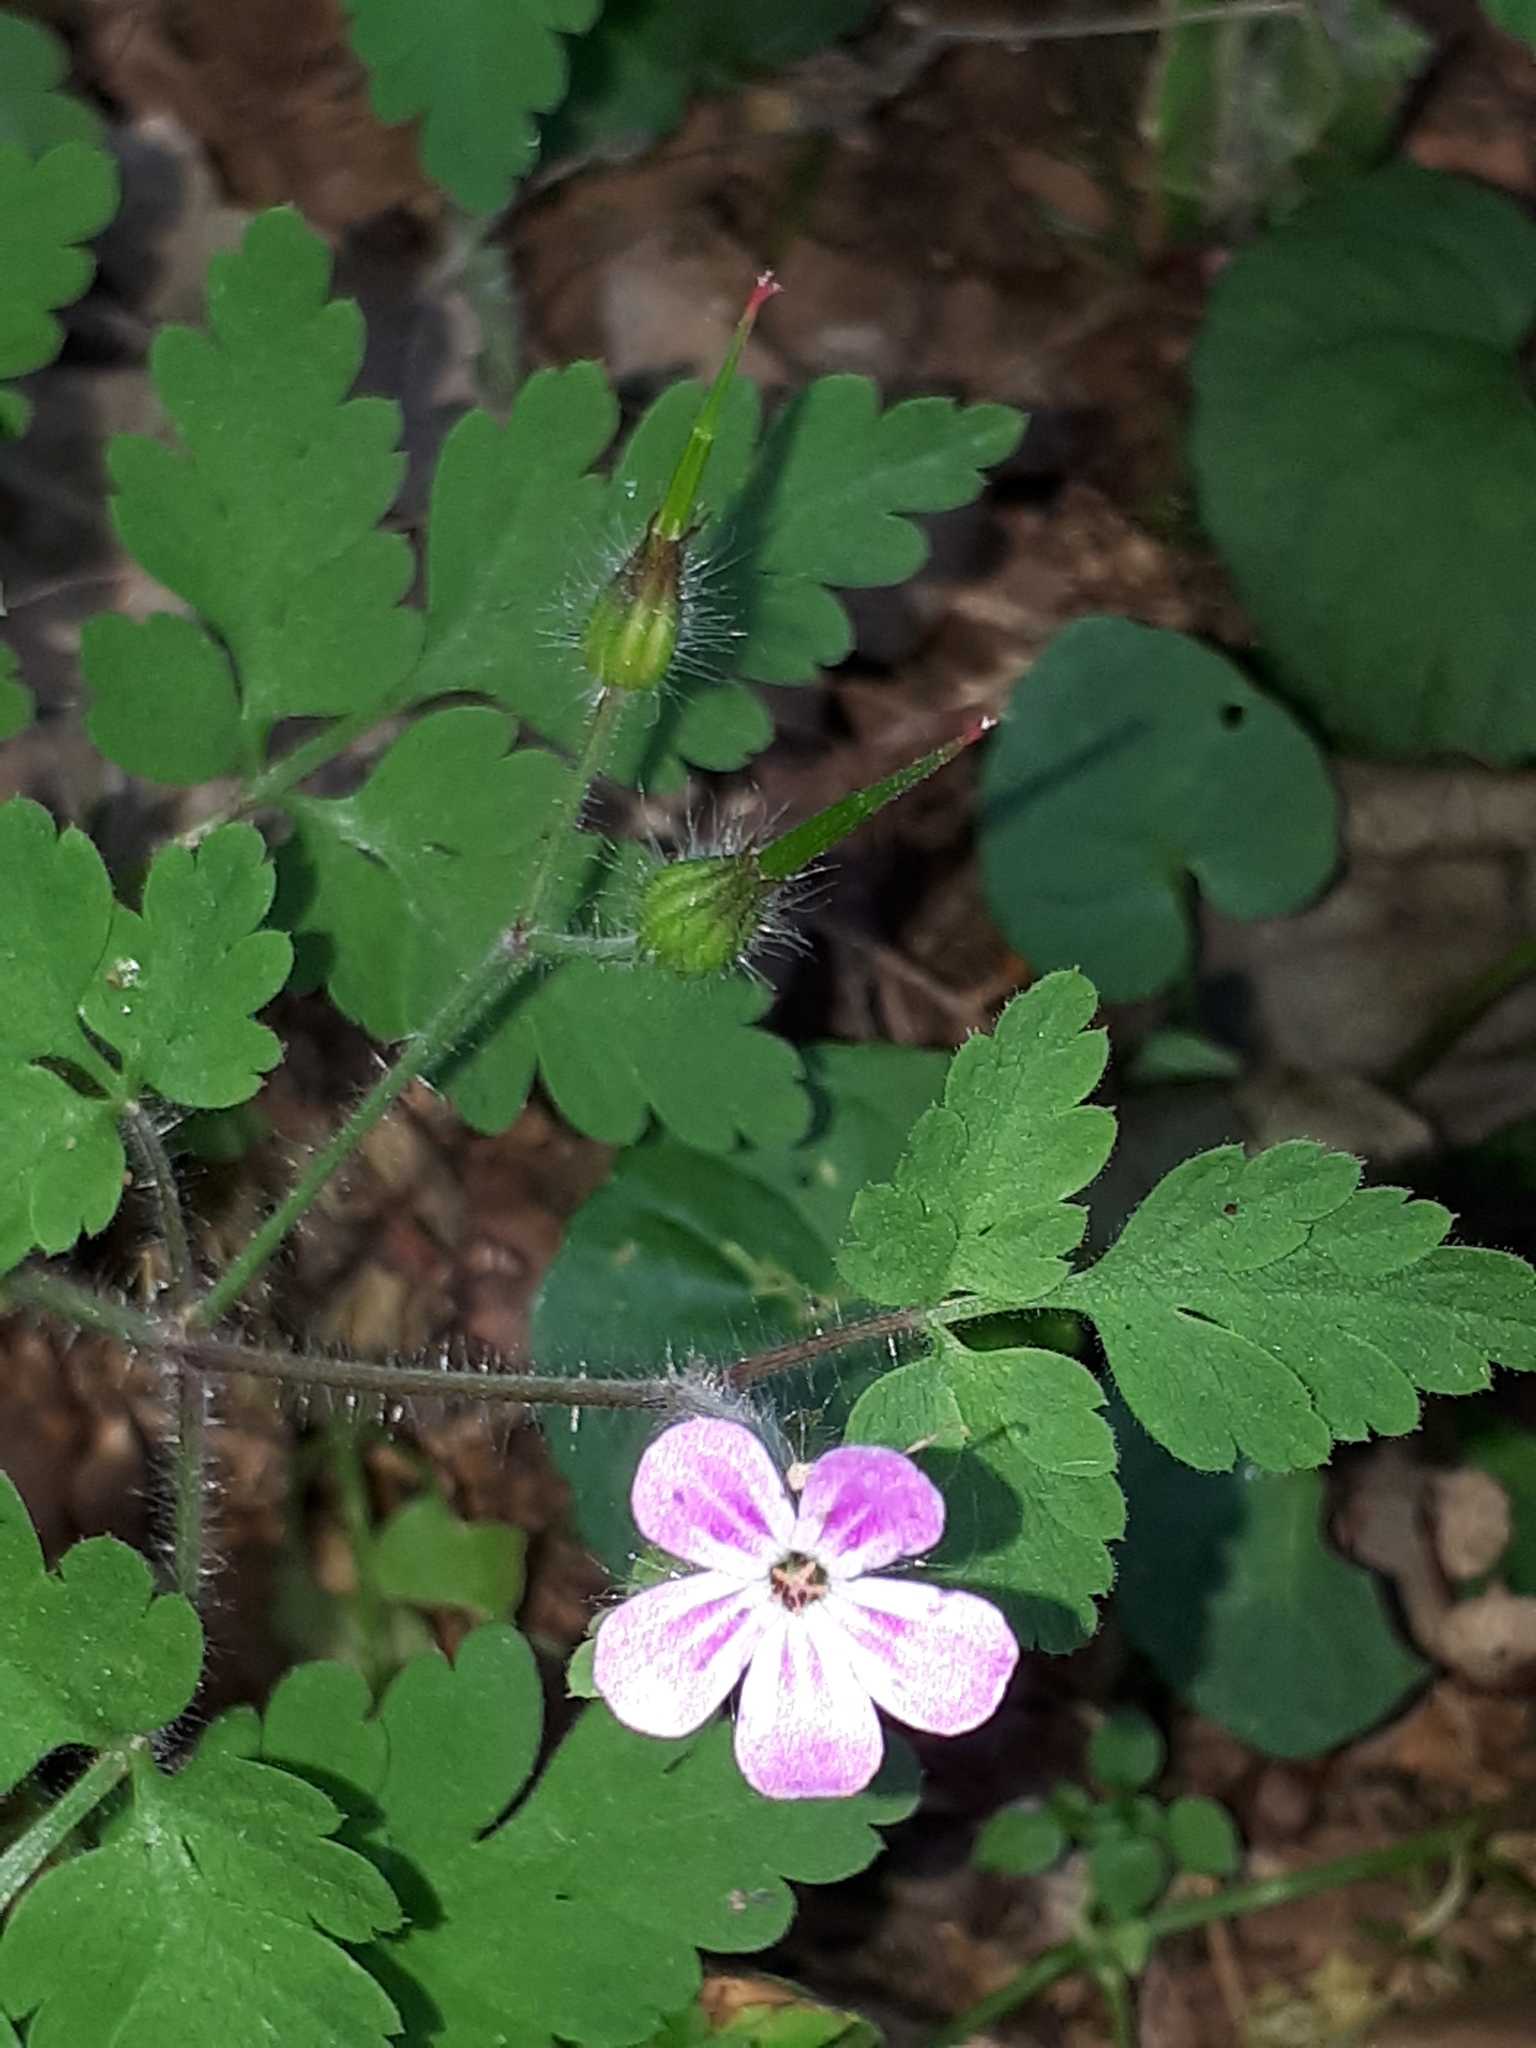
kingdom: Plantae
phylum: Tracheophyta
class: Magnoliopsida
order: Geraniales
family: Geraniaceae
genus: Geranium
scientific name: Geranium robertianum
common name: Herb-robert
